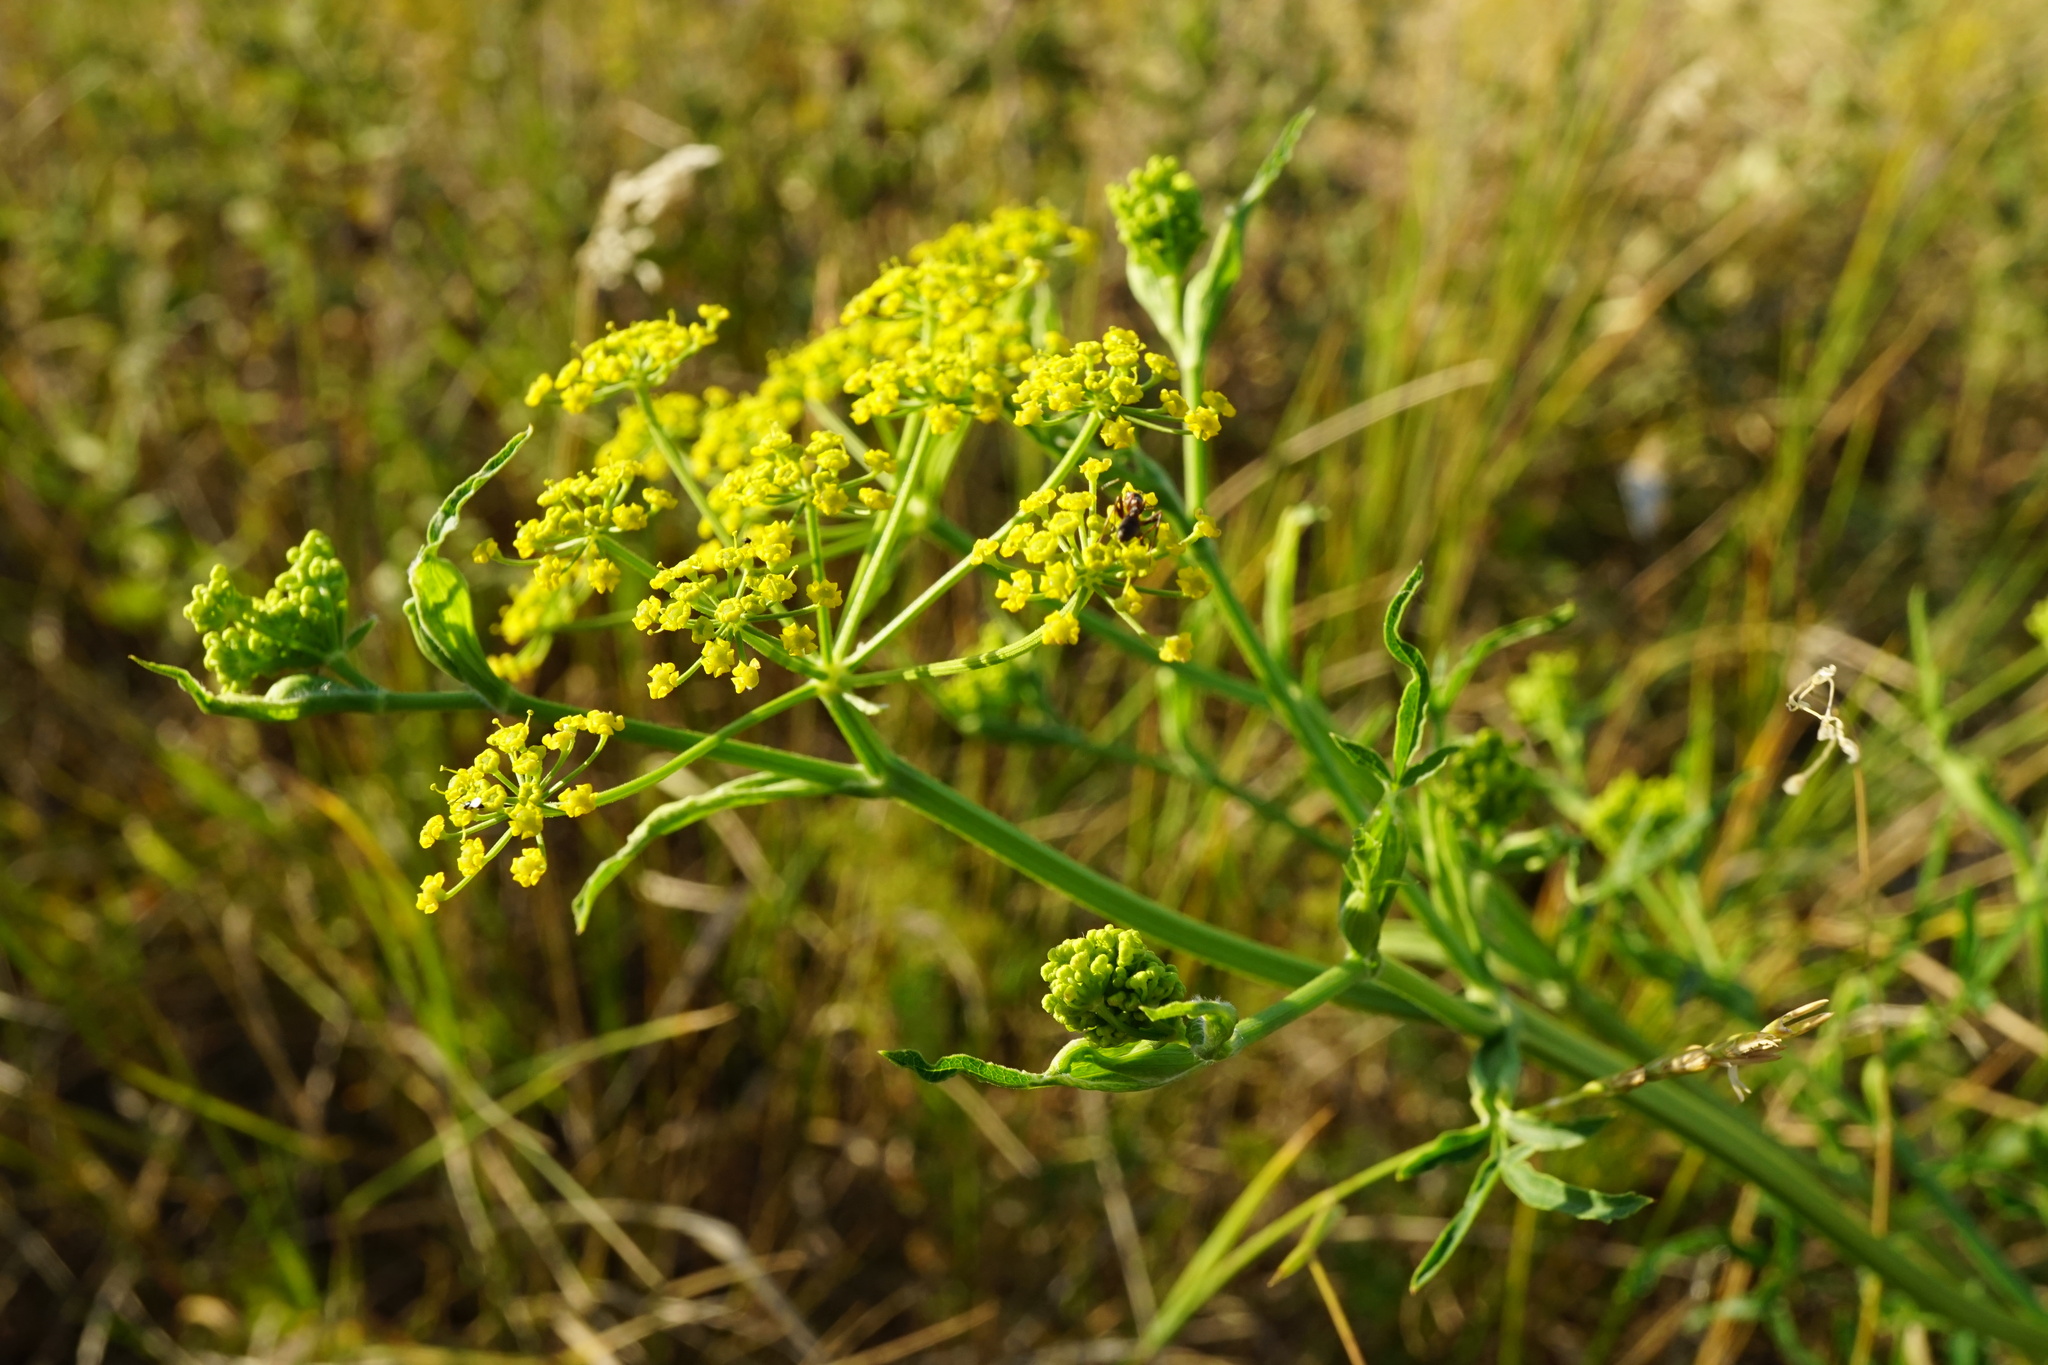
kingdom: Plantae
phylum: Tracheophyta
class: Magnoliopsida
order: Apiales
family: Apiaceae
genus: Pastinaca
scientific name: Pastinaca sativa
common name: Wild parsnip
